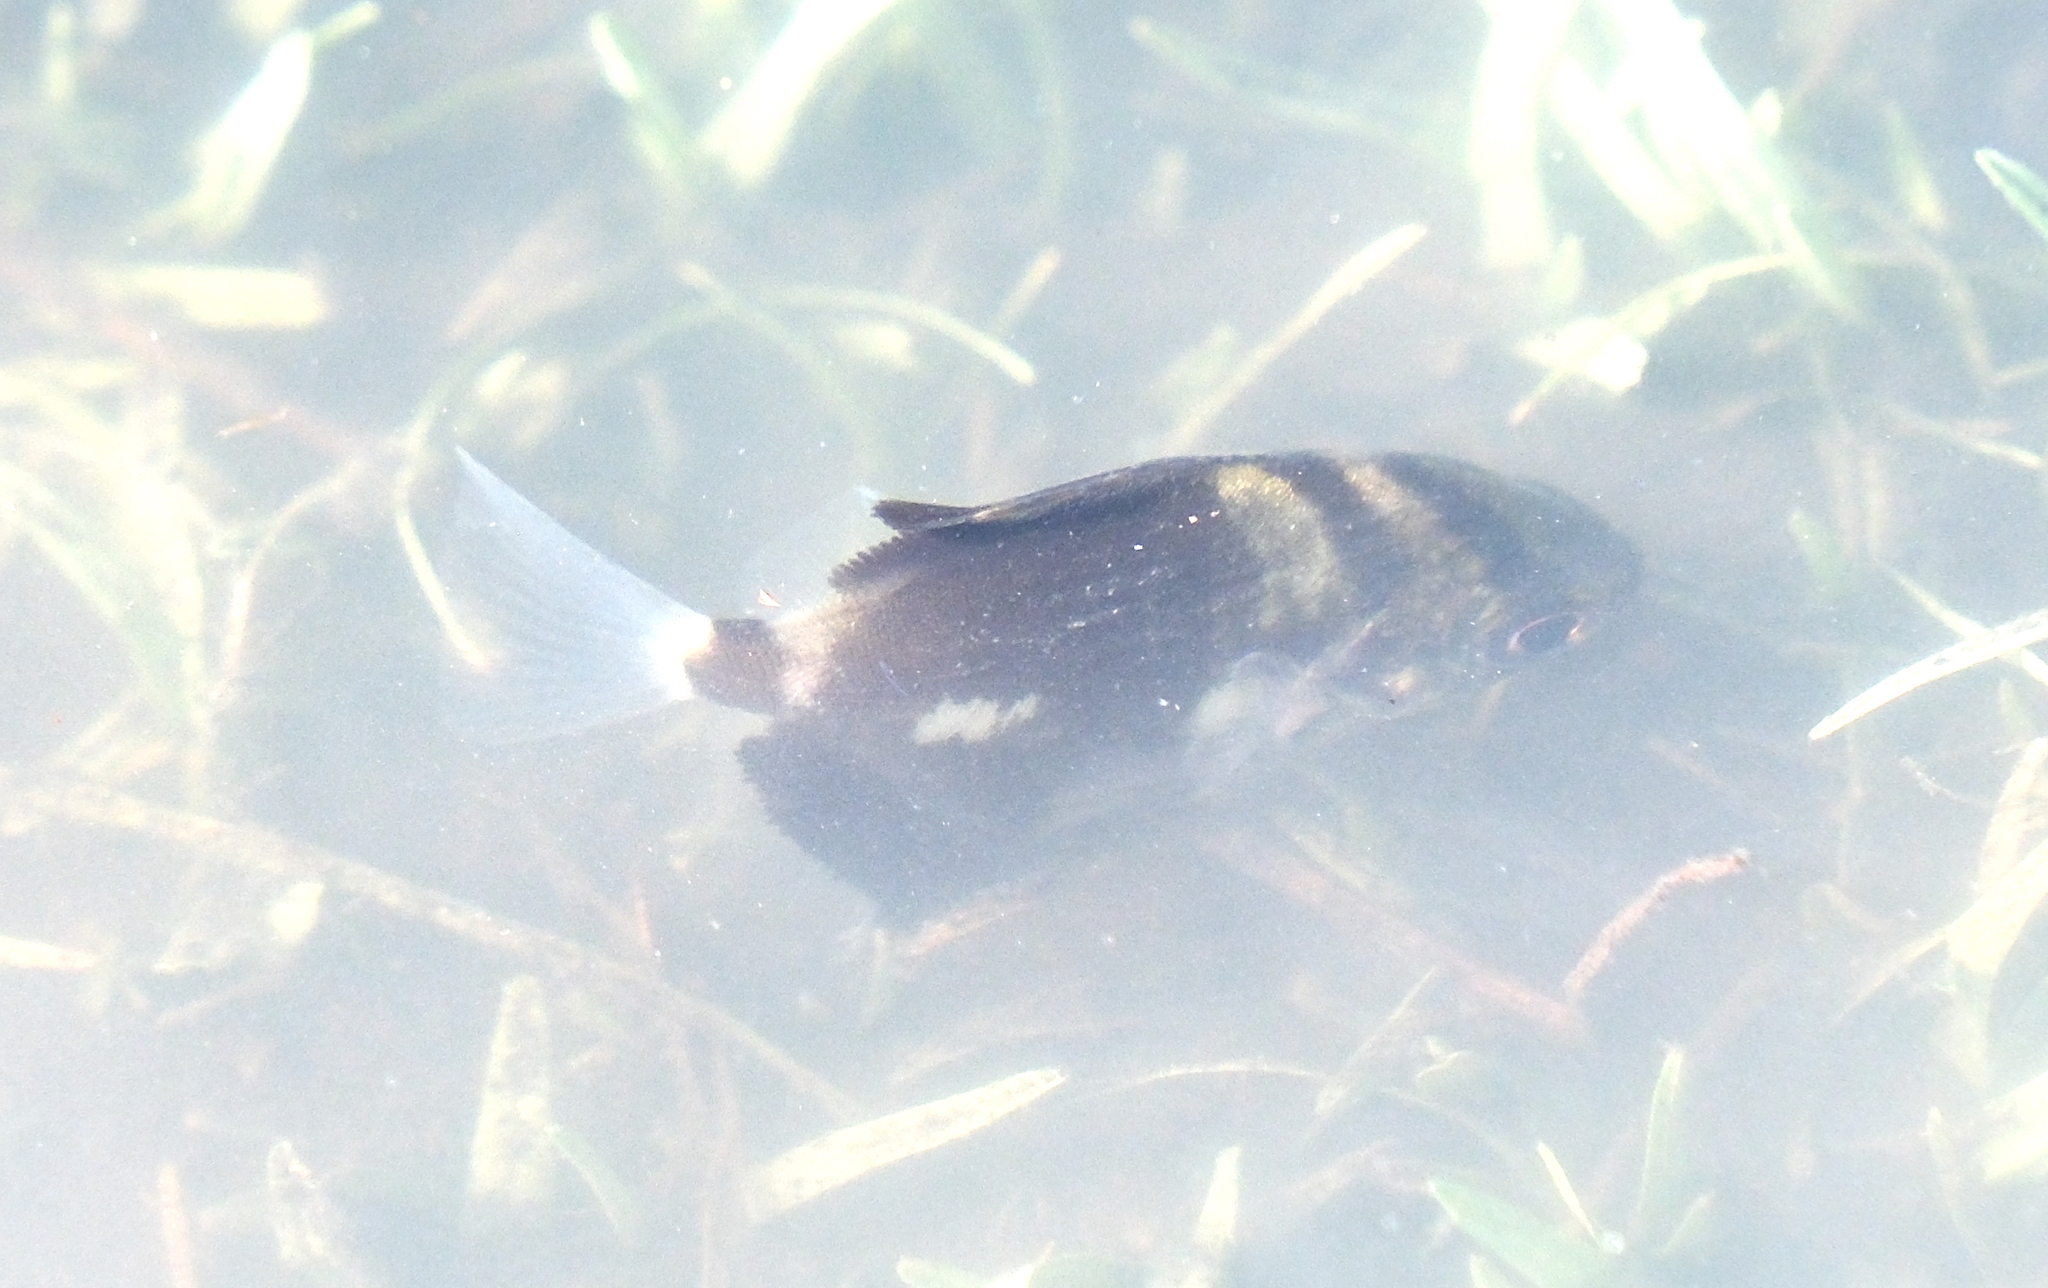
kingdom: Animalia
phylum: Chordata
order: Perciformes
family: Monodactylidae
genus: Monodactylus
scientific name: Monodactylus argenteus
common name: Silver moony
